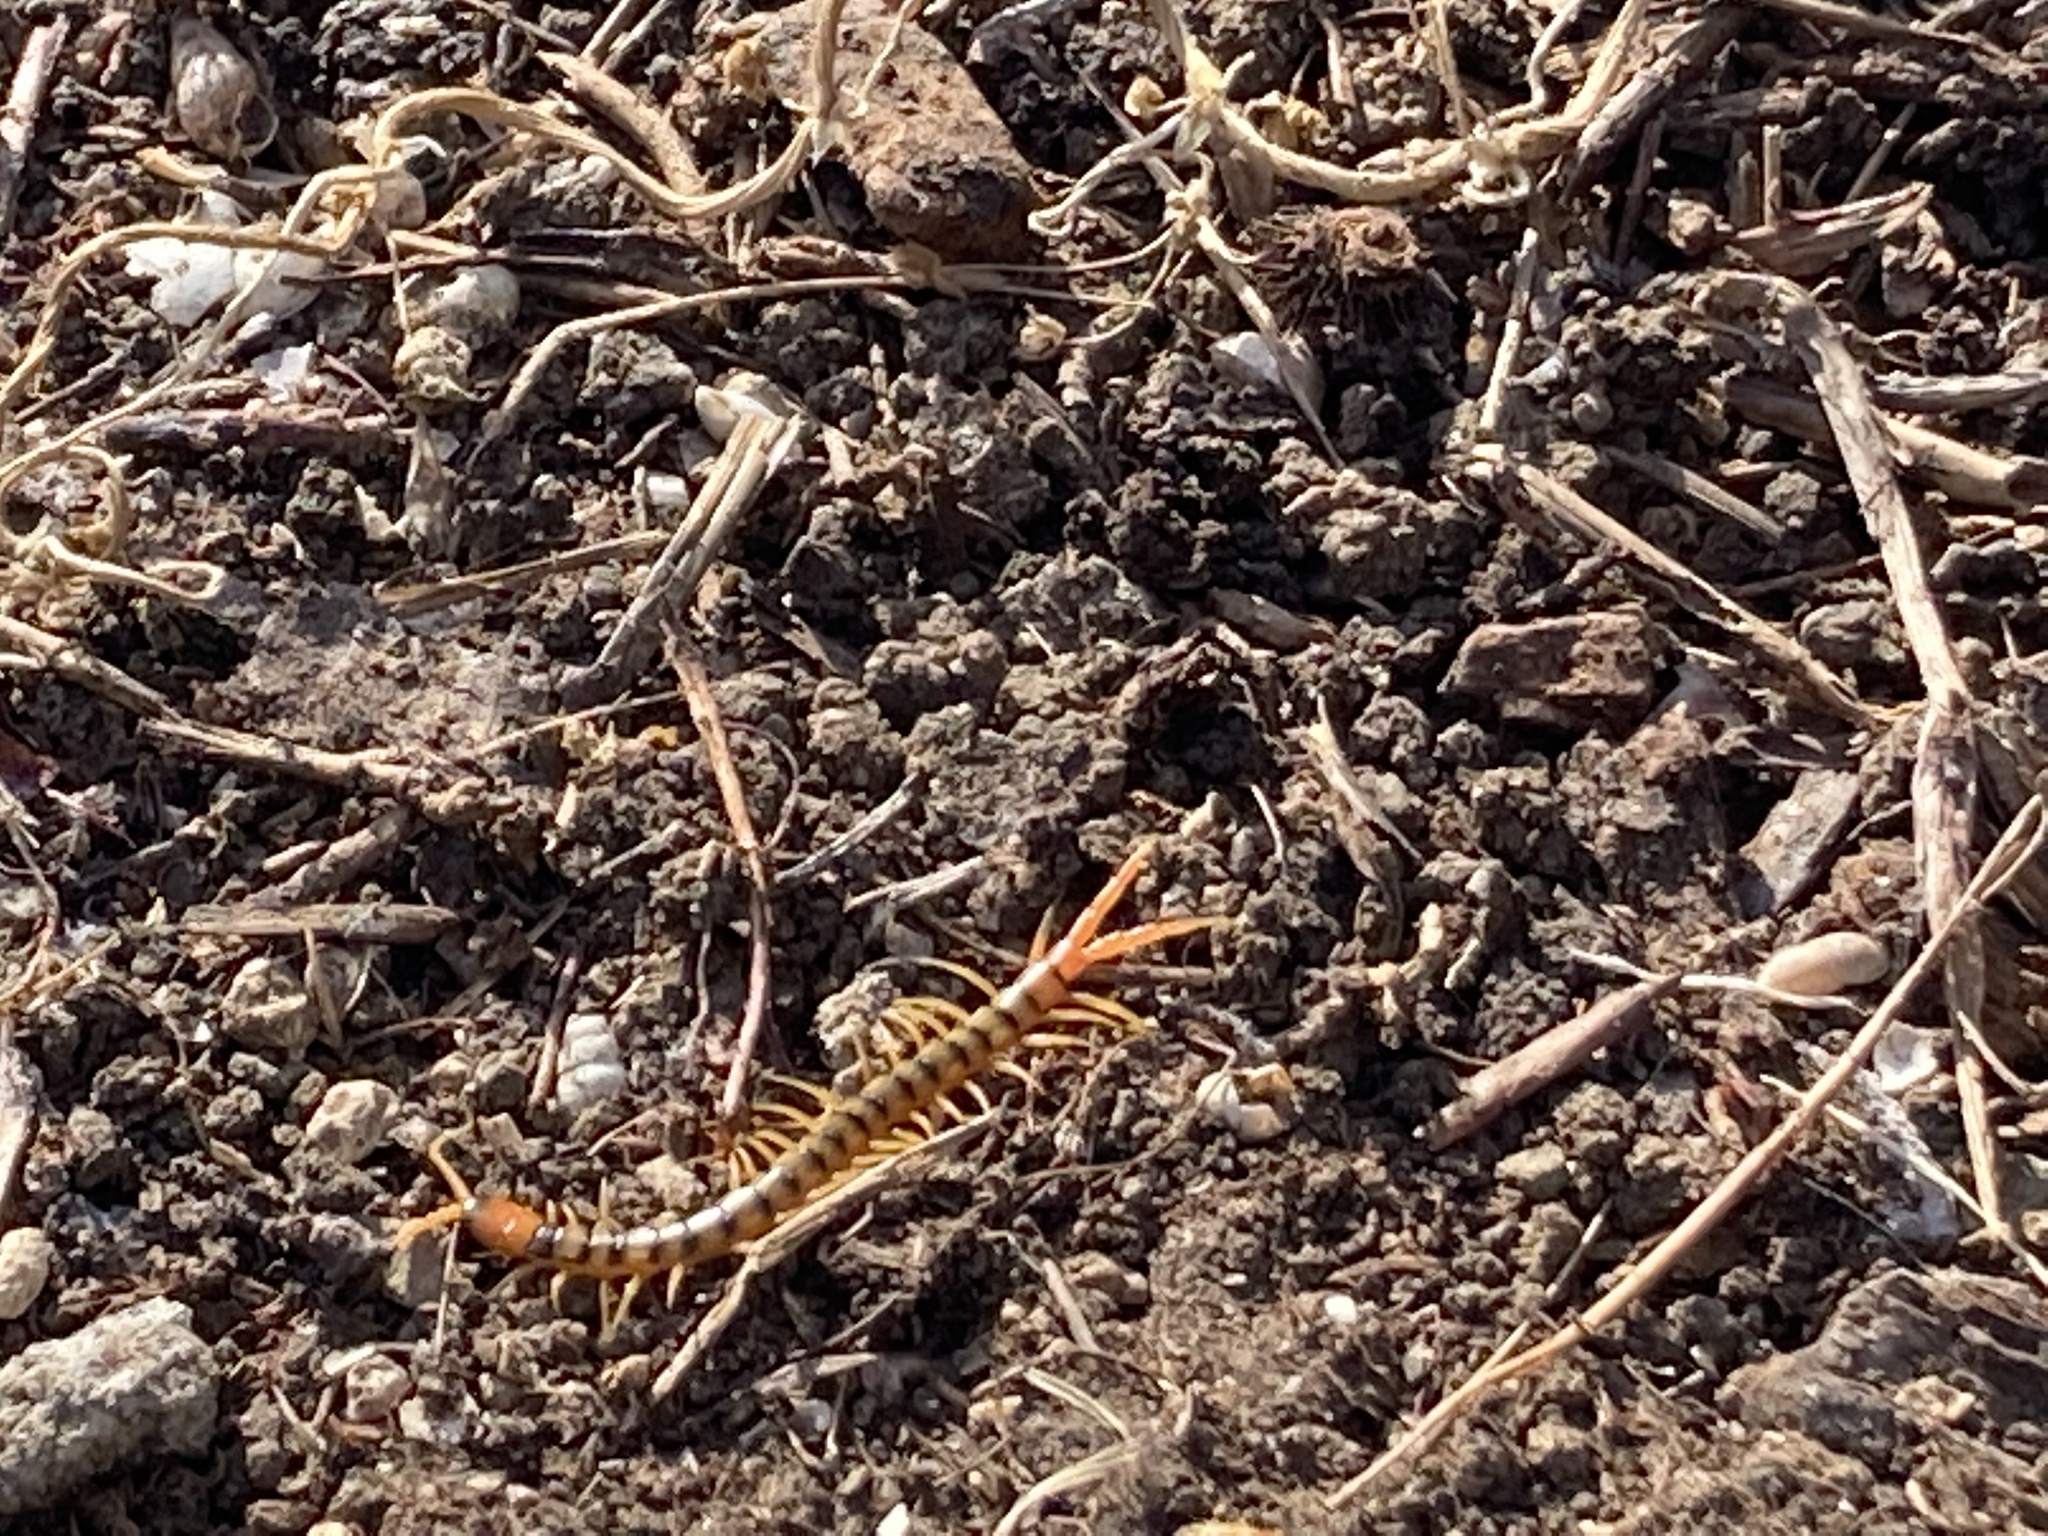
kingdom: Animalia
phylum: Arthropoda
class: Chilopoda
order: Scolopendromorpha
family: Scolopendridae
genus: Scolopendra
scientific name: Scolopendra cingulata
